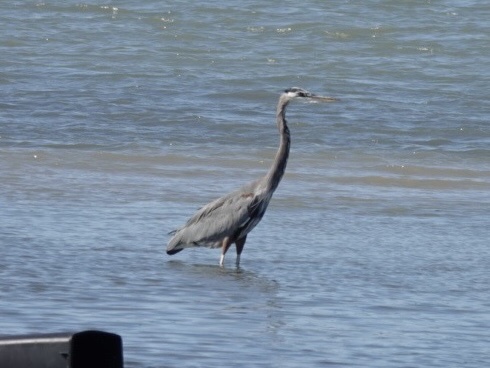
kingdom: Animalia
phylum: Chordata
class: Aves
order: Pelecaniformes
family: Ardeidae
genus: Ardea
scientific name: Ardea herodias
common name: Great blue heron
